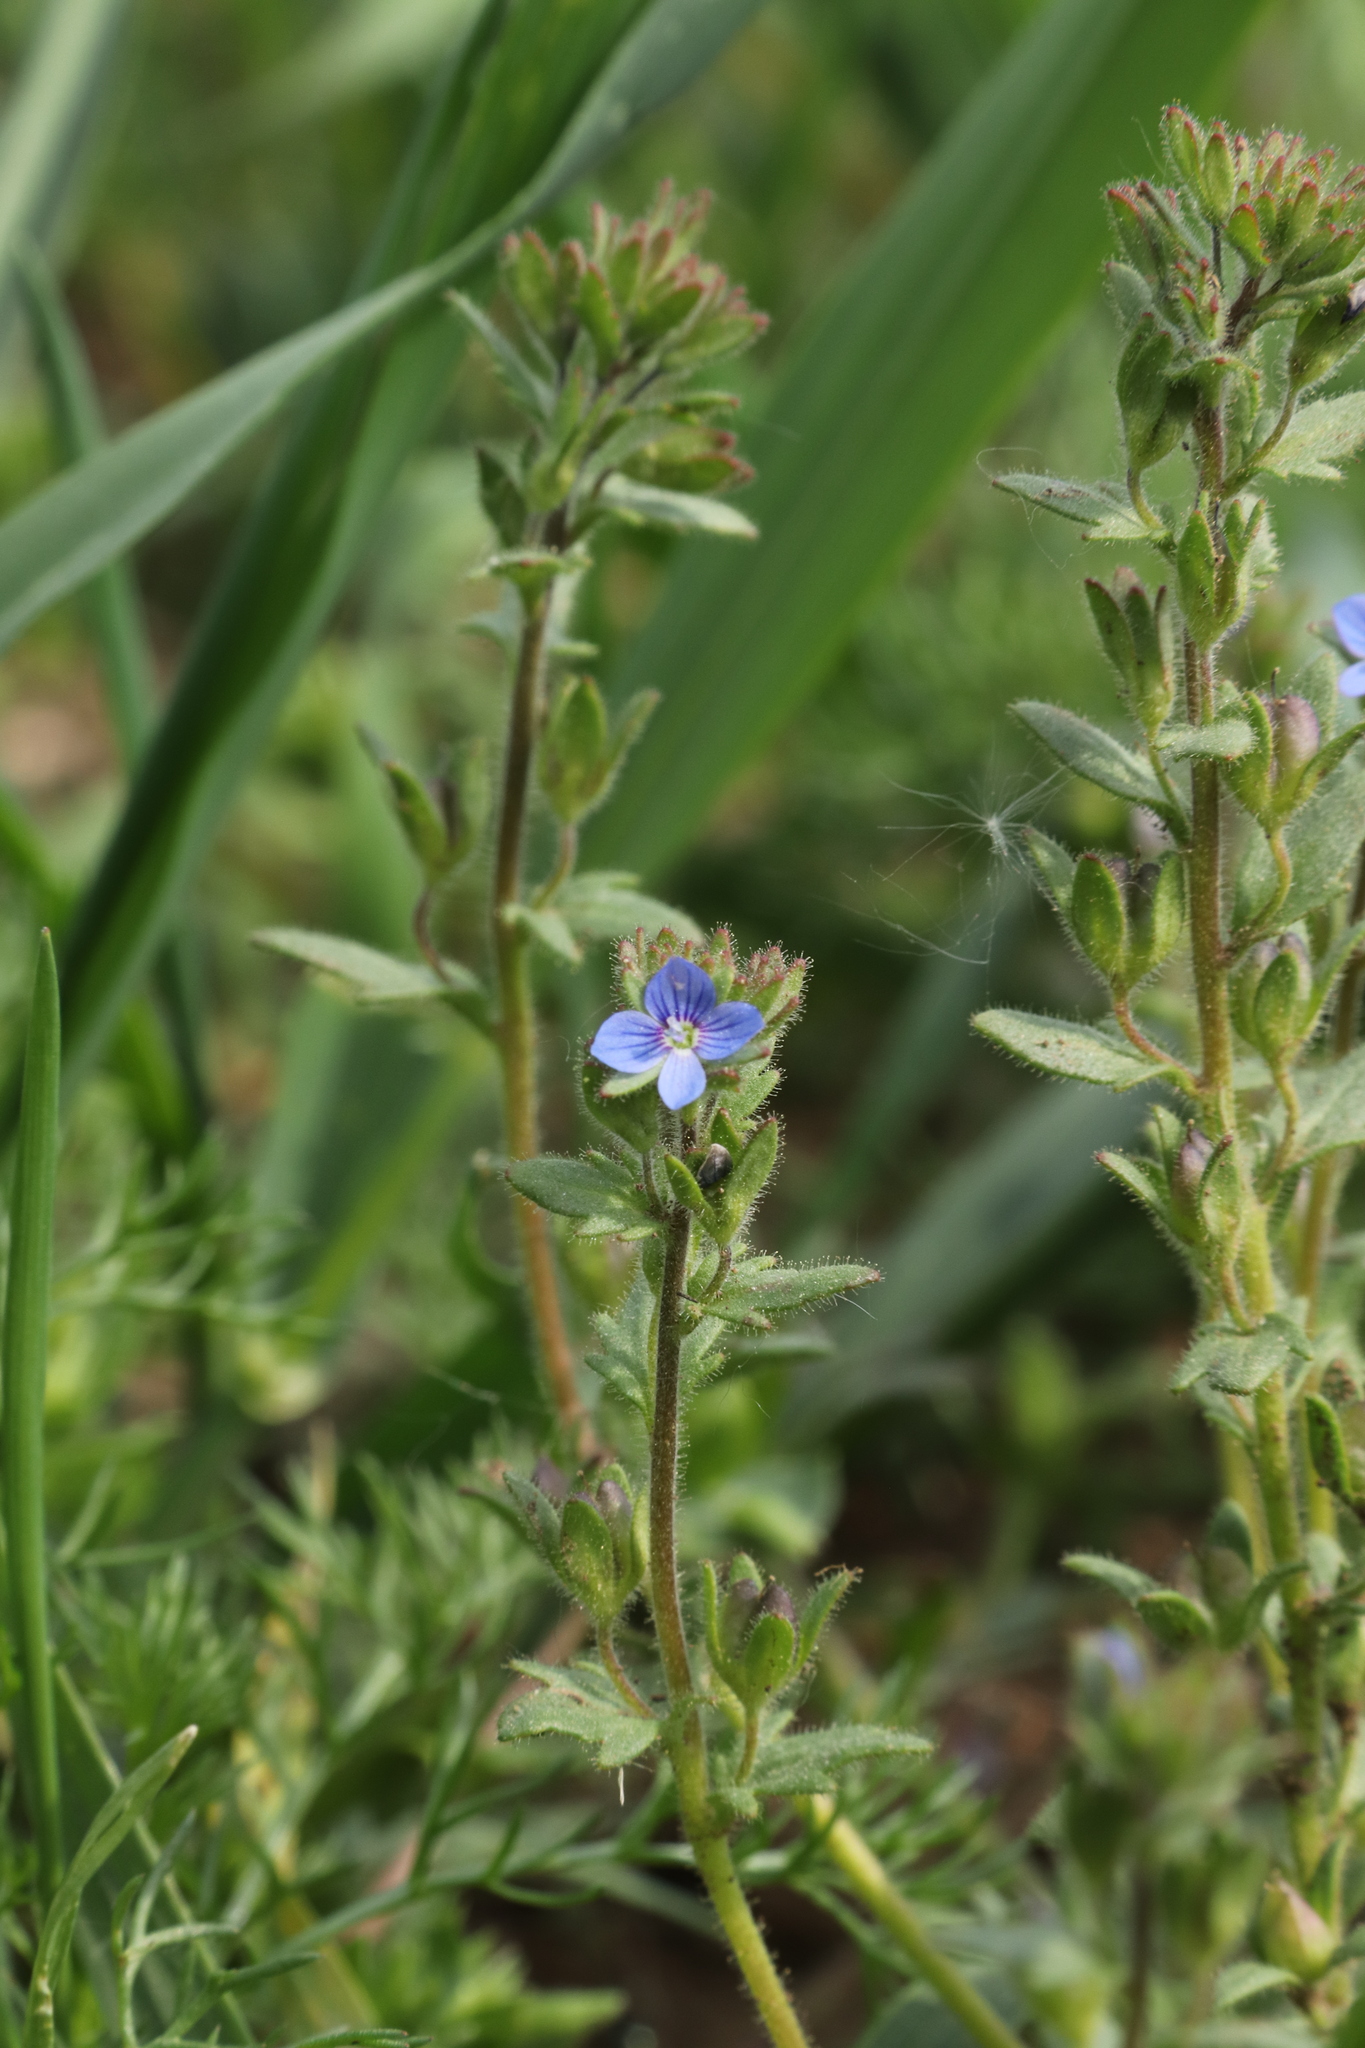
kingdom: Plantae
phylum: Tracheophyta
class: Magnoliopsida
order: Lamiales
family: Plantaginaceae
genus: Veronica
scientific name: Veronica praecox
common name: Breckland speedwell
